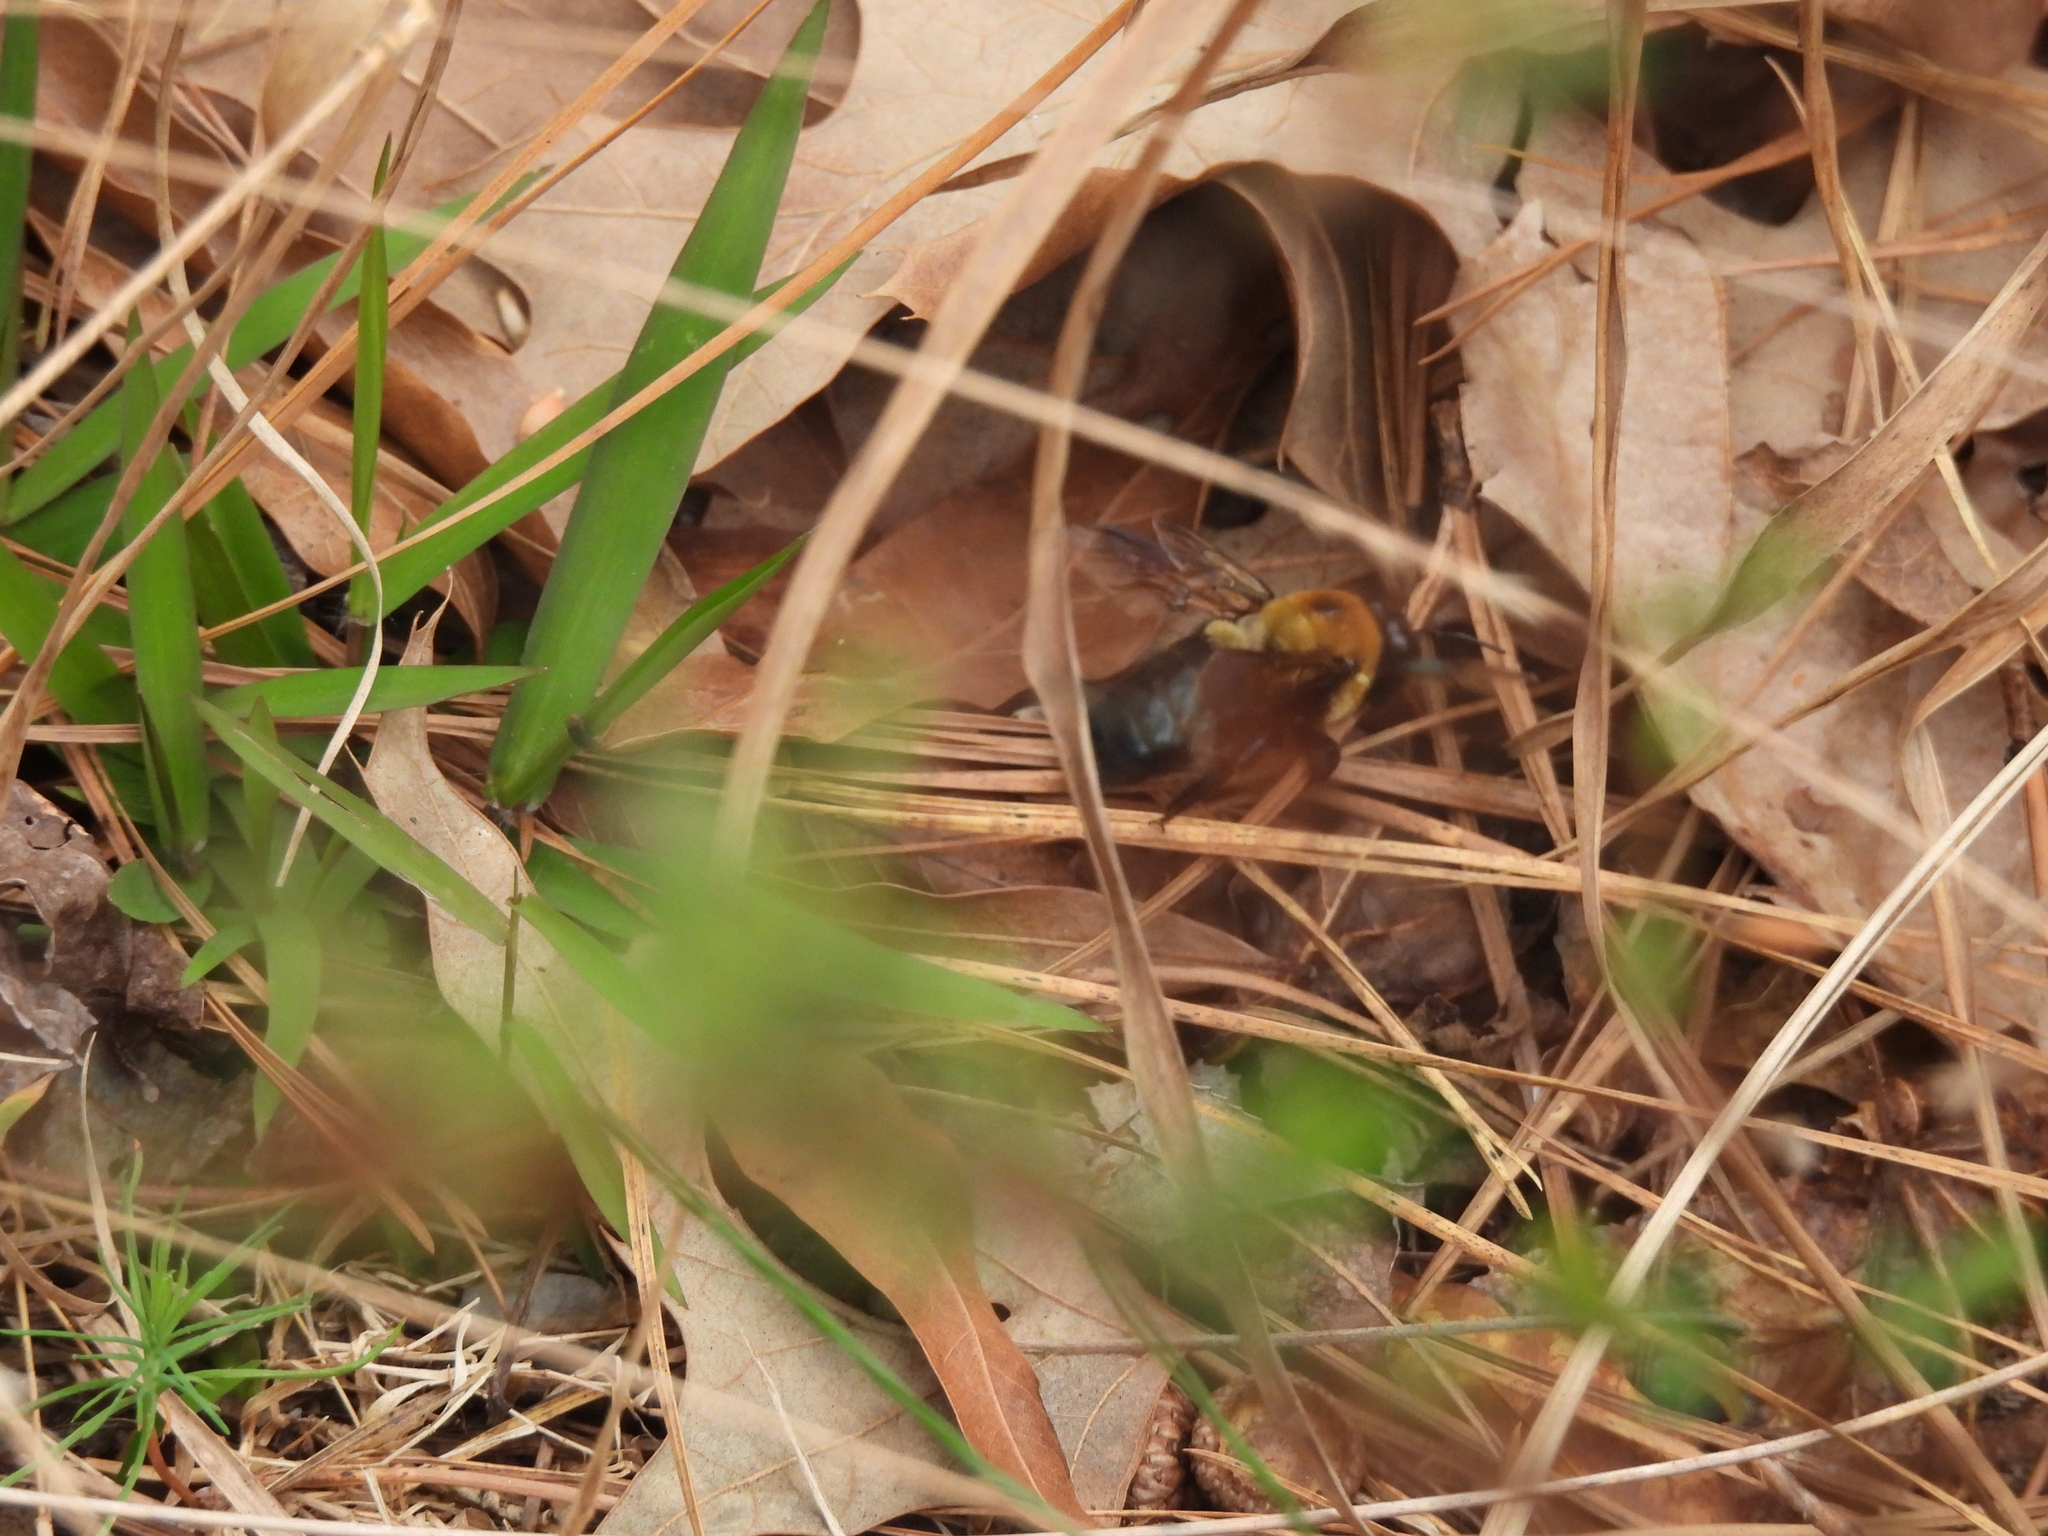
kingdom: Animalia
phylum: Arthropoda
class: Insecta
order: Hymenoptera
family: Apidae
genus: Xylocopa
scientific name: Xylocopa virginica
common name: Carpenter bee
